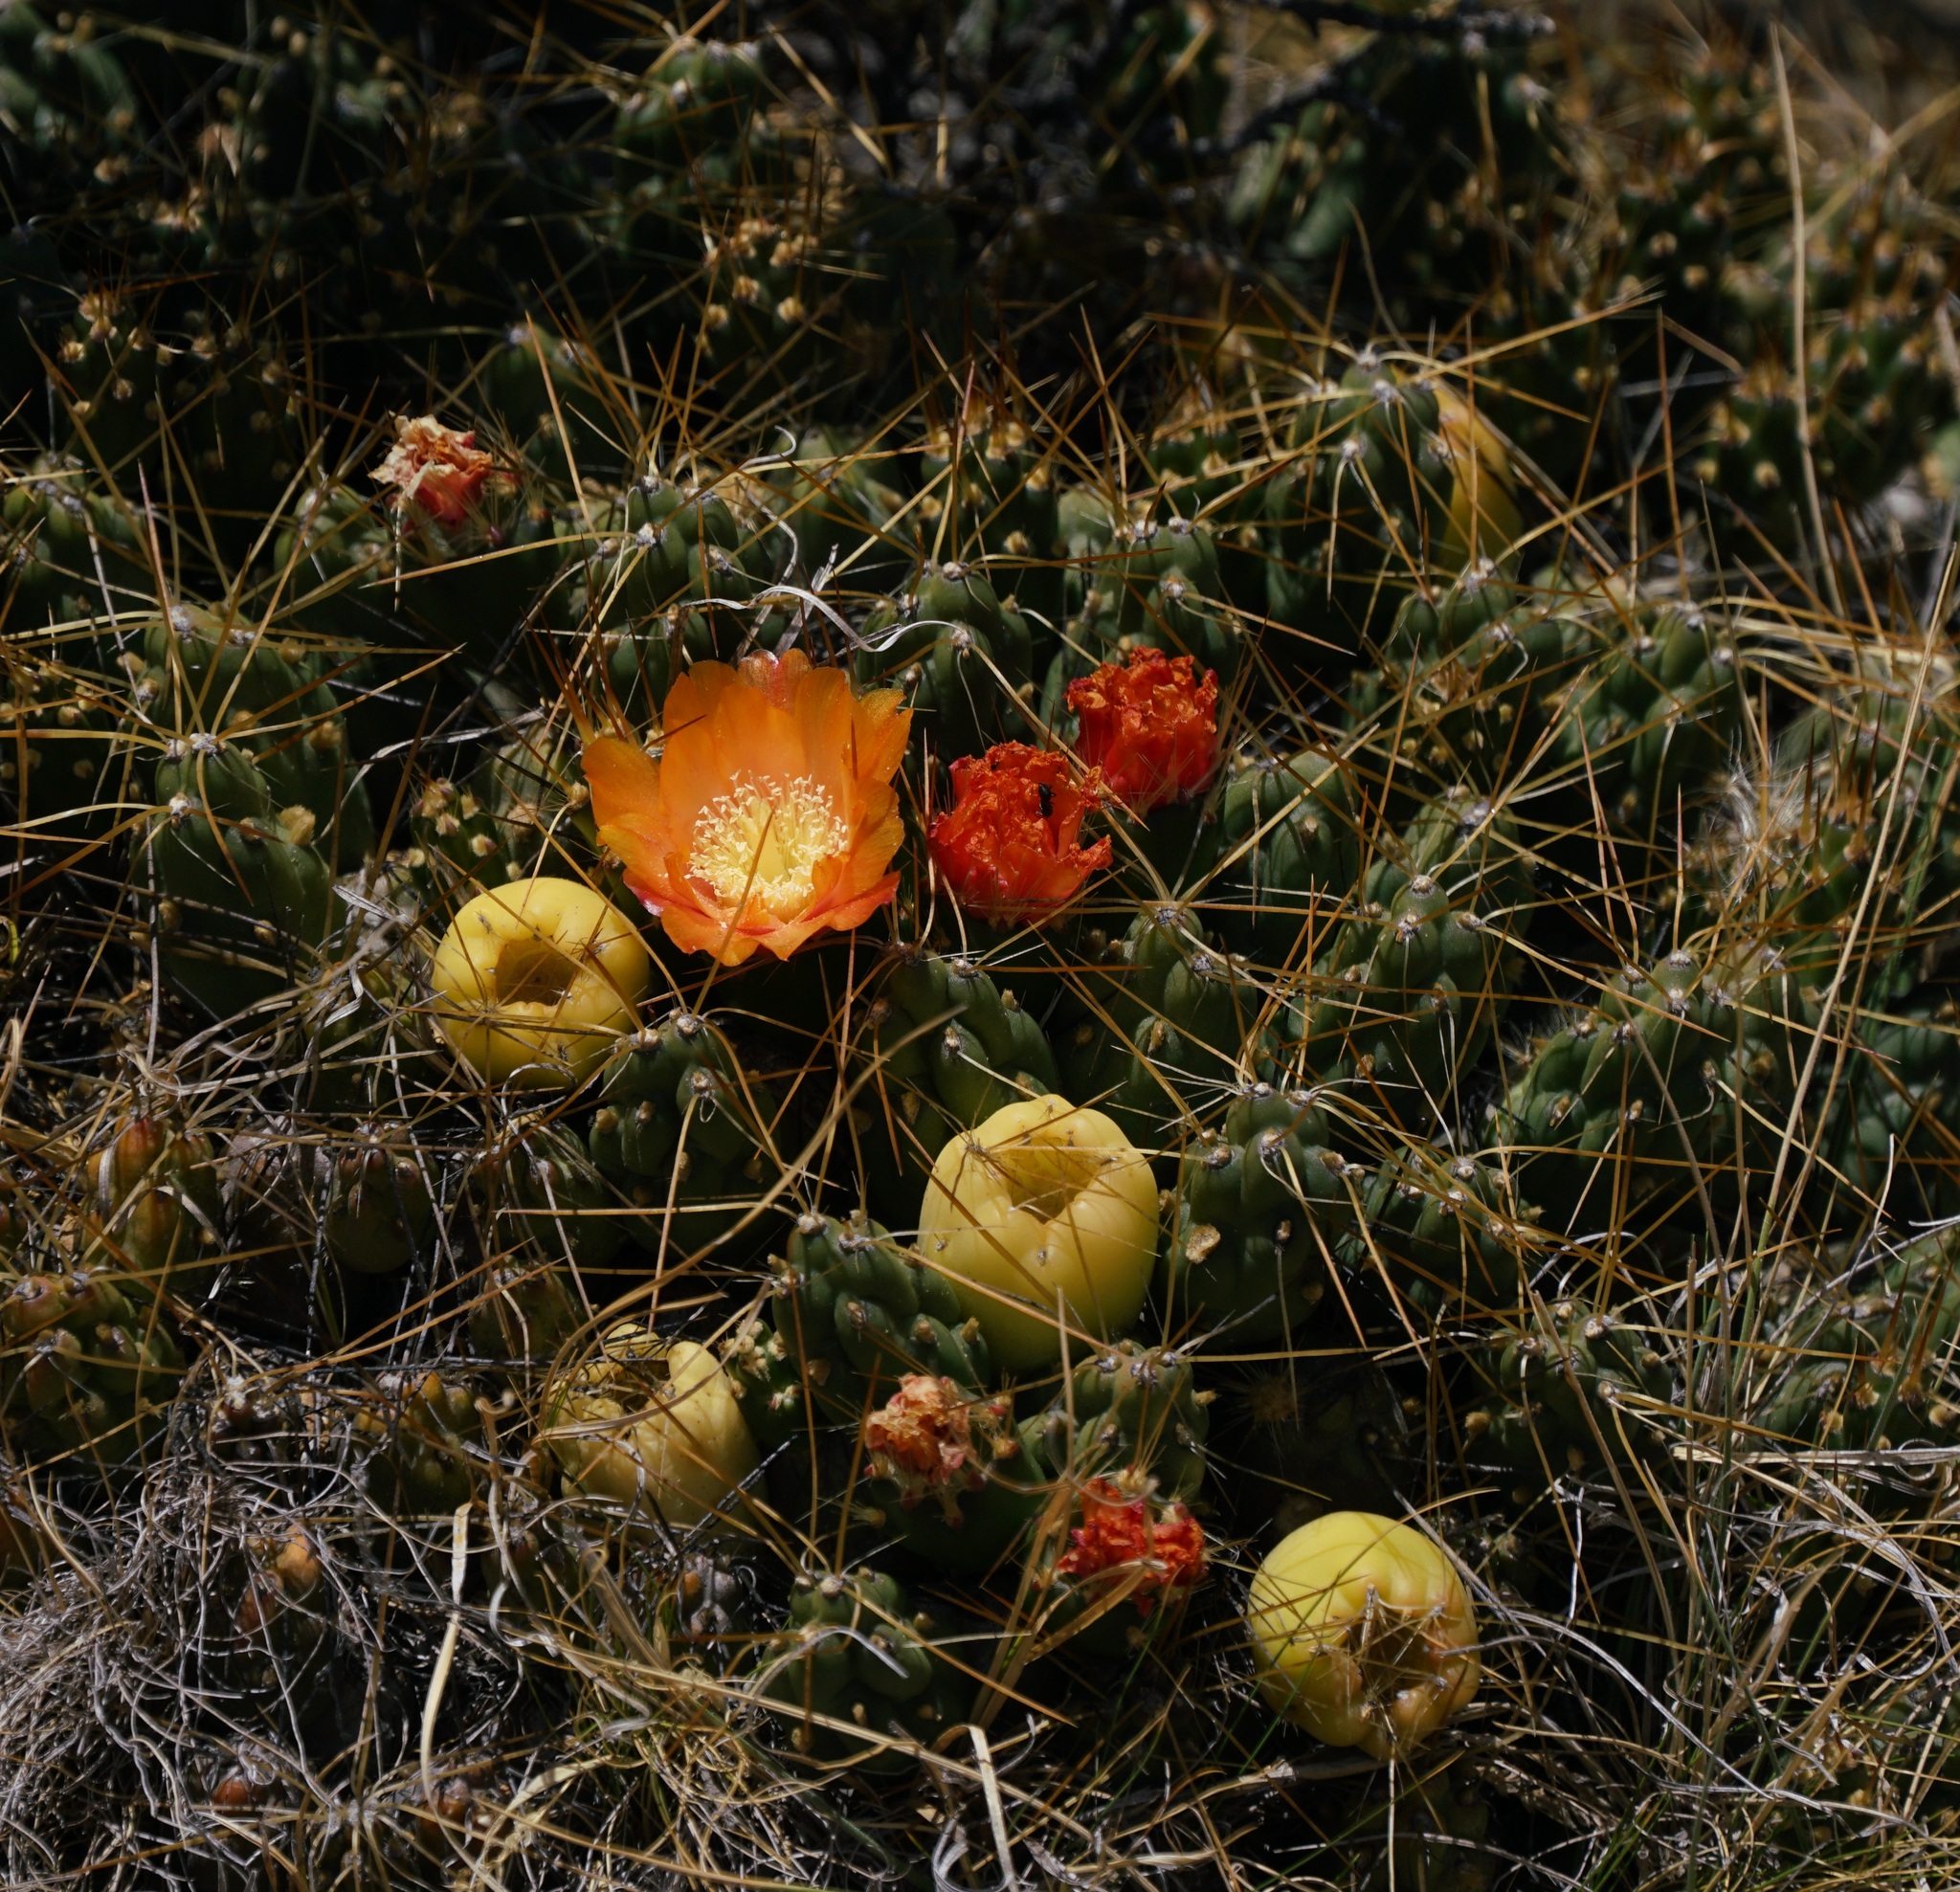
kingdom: Plantae
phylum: Tracheophyta
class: Magnoliopsida
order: Caryophyllales
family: Cactaceae
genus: Cumulopuntia
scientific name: Cumulopuntia boliviana
